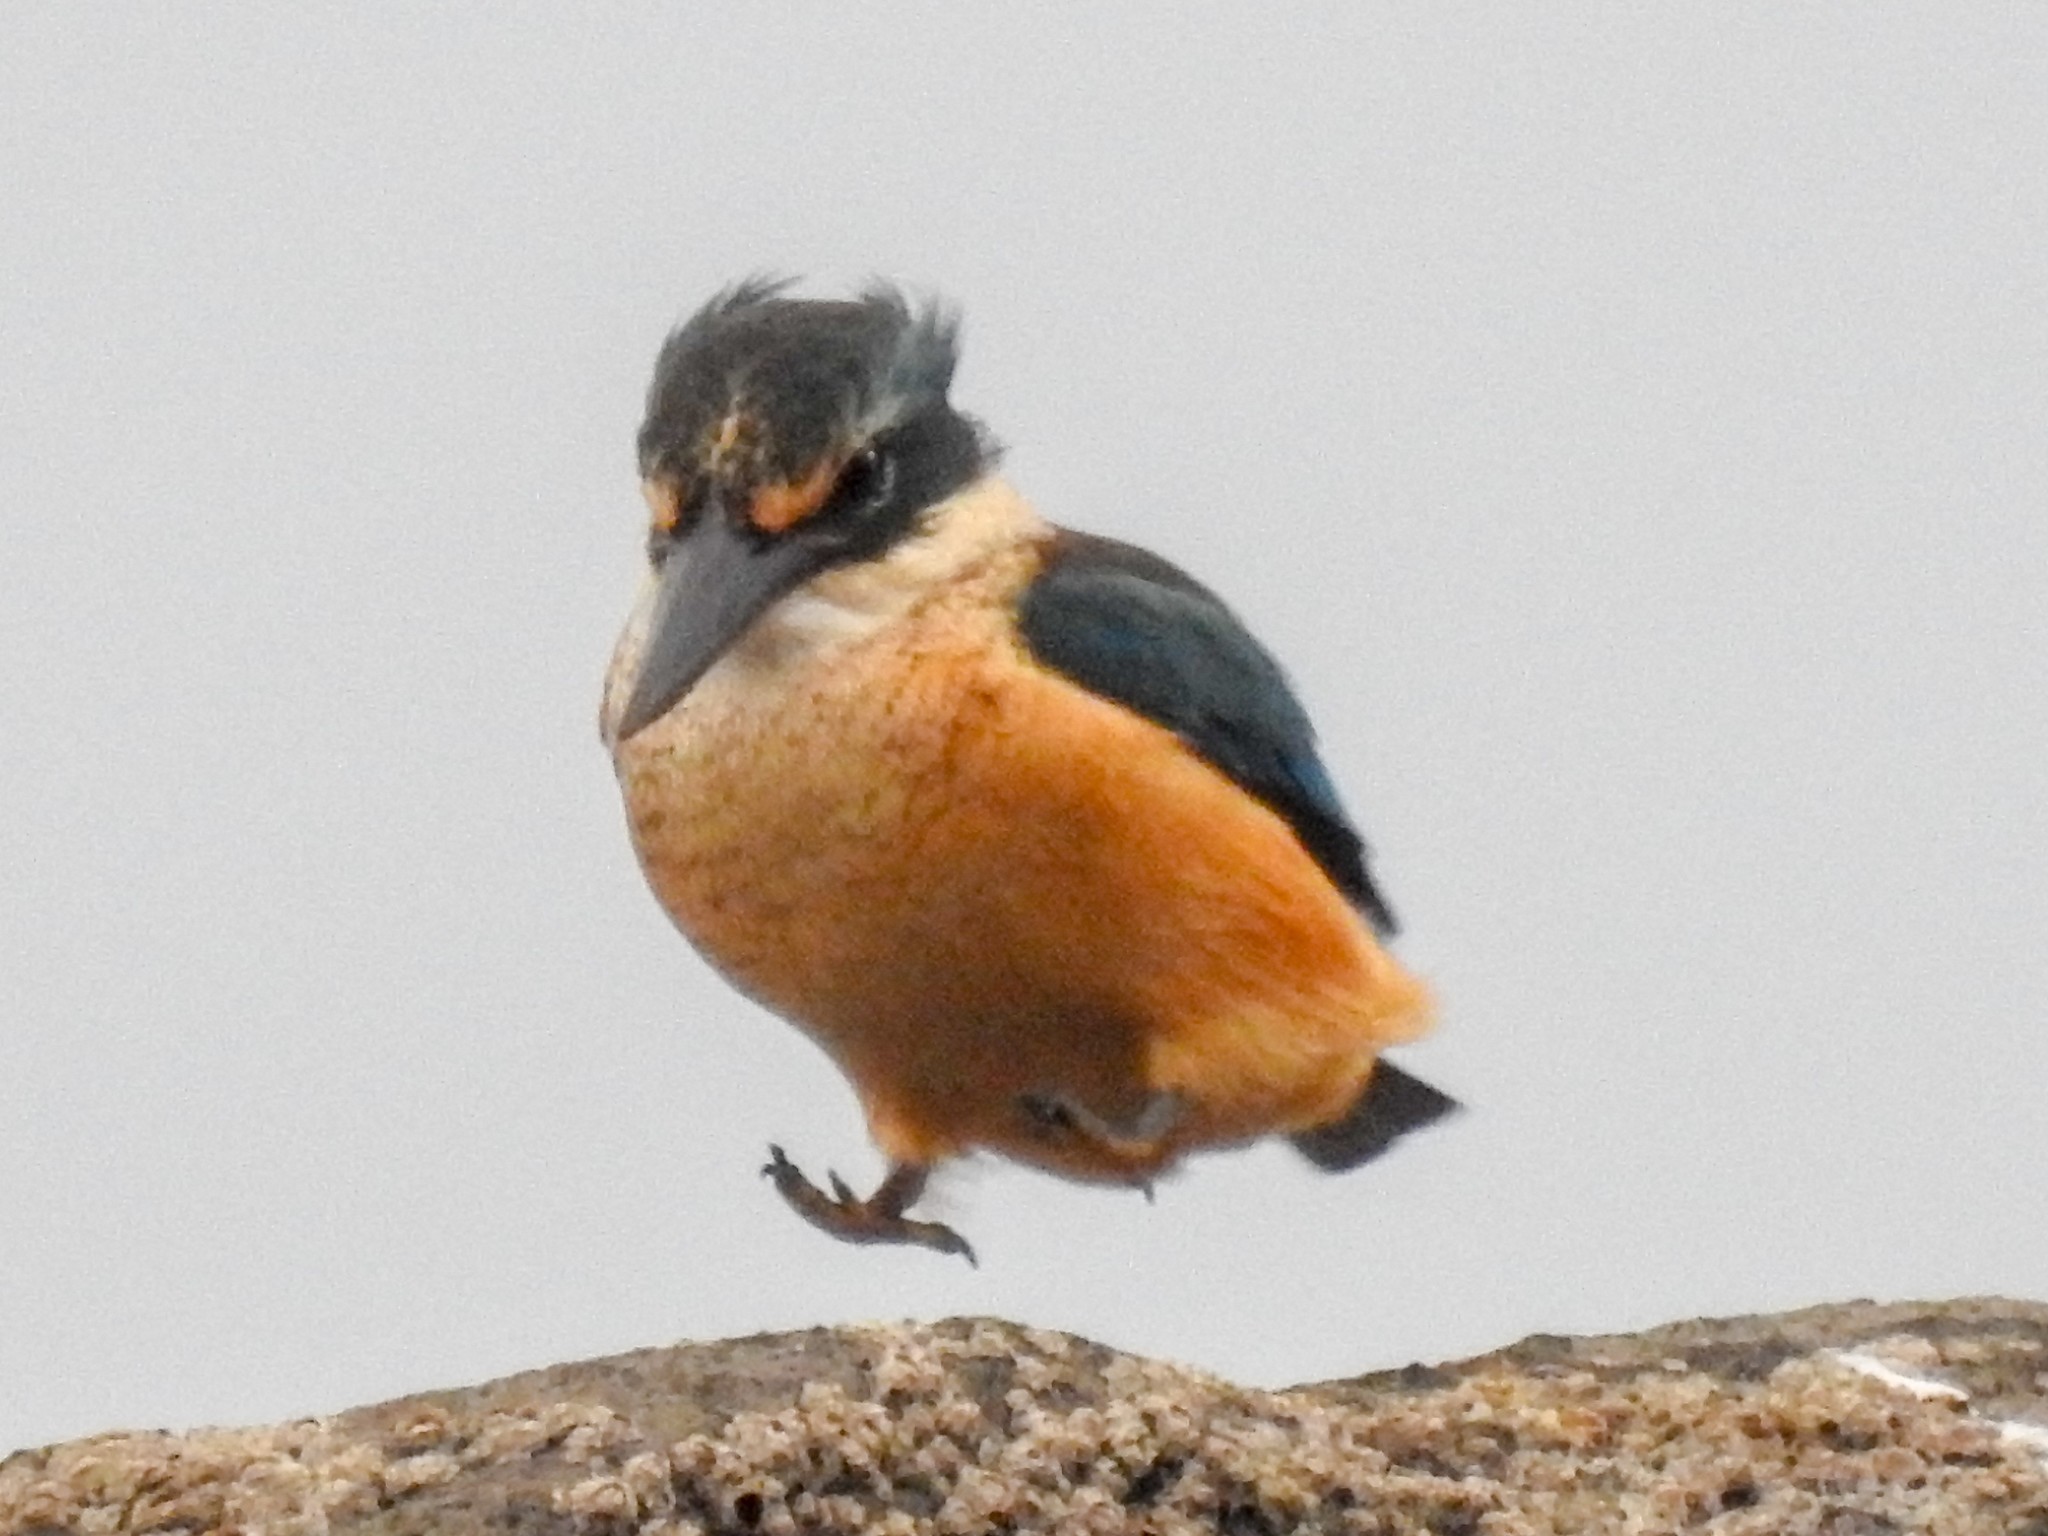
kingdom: Animalia
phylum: Chordata
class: Aves
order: Coraciiformes
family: Alcedinidae
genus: Todiramphus
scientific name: Todiramphus sanctus
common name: Sacred kingfisher
